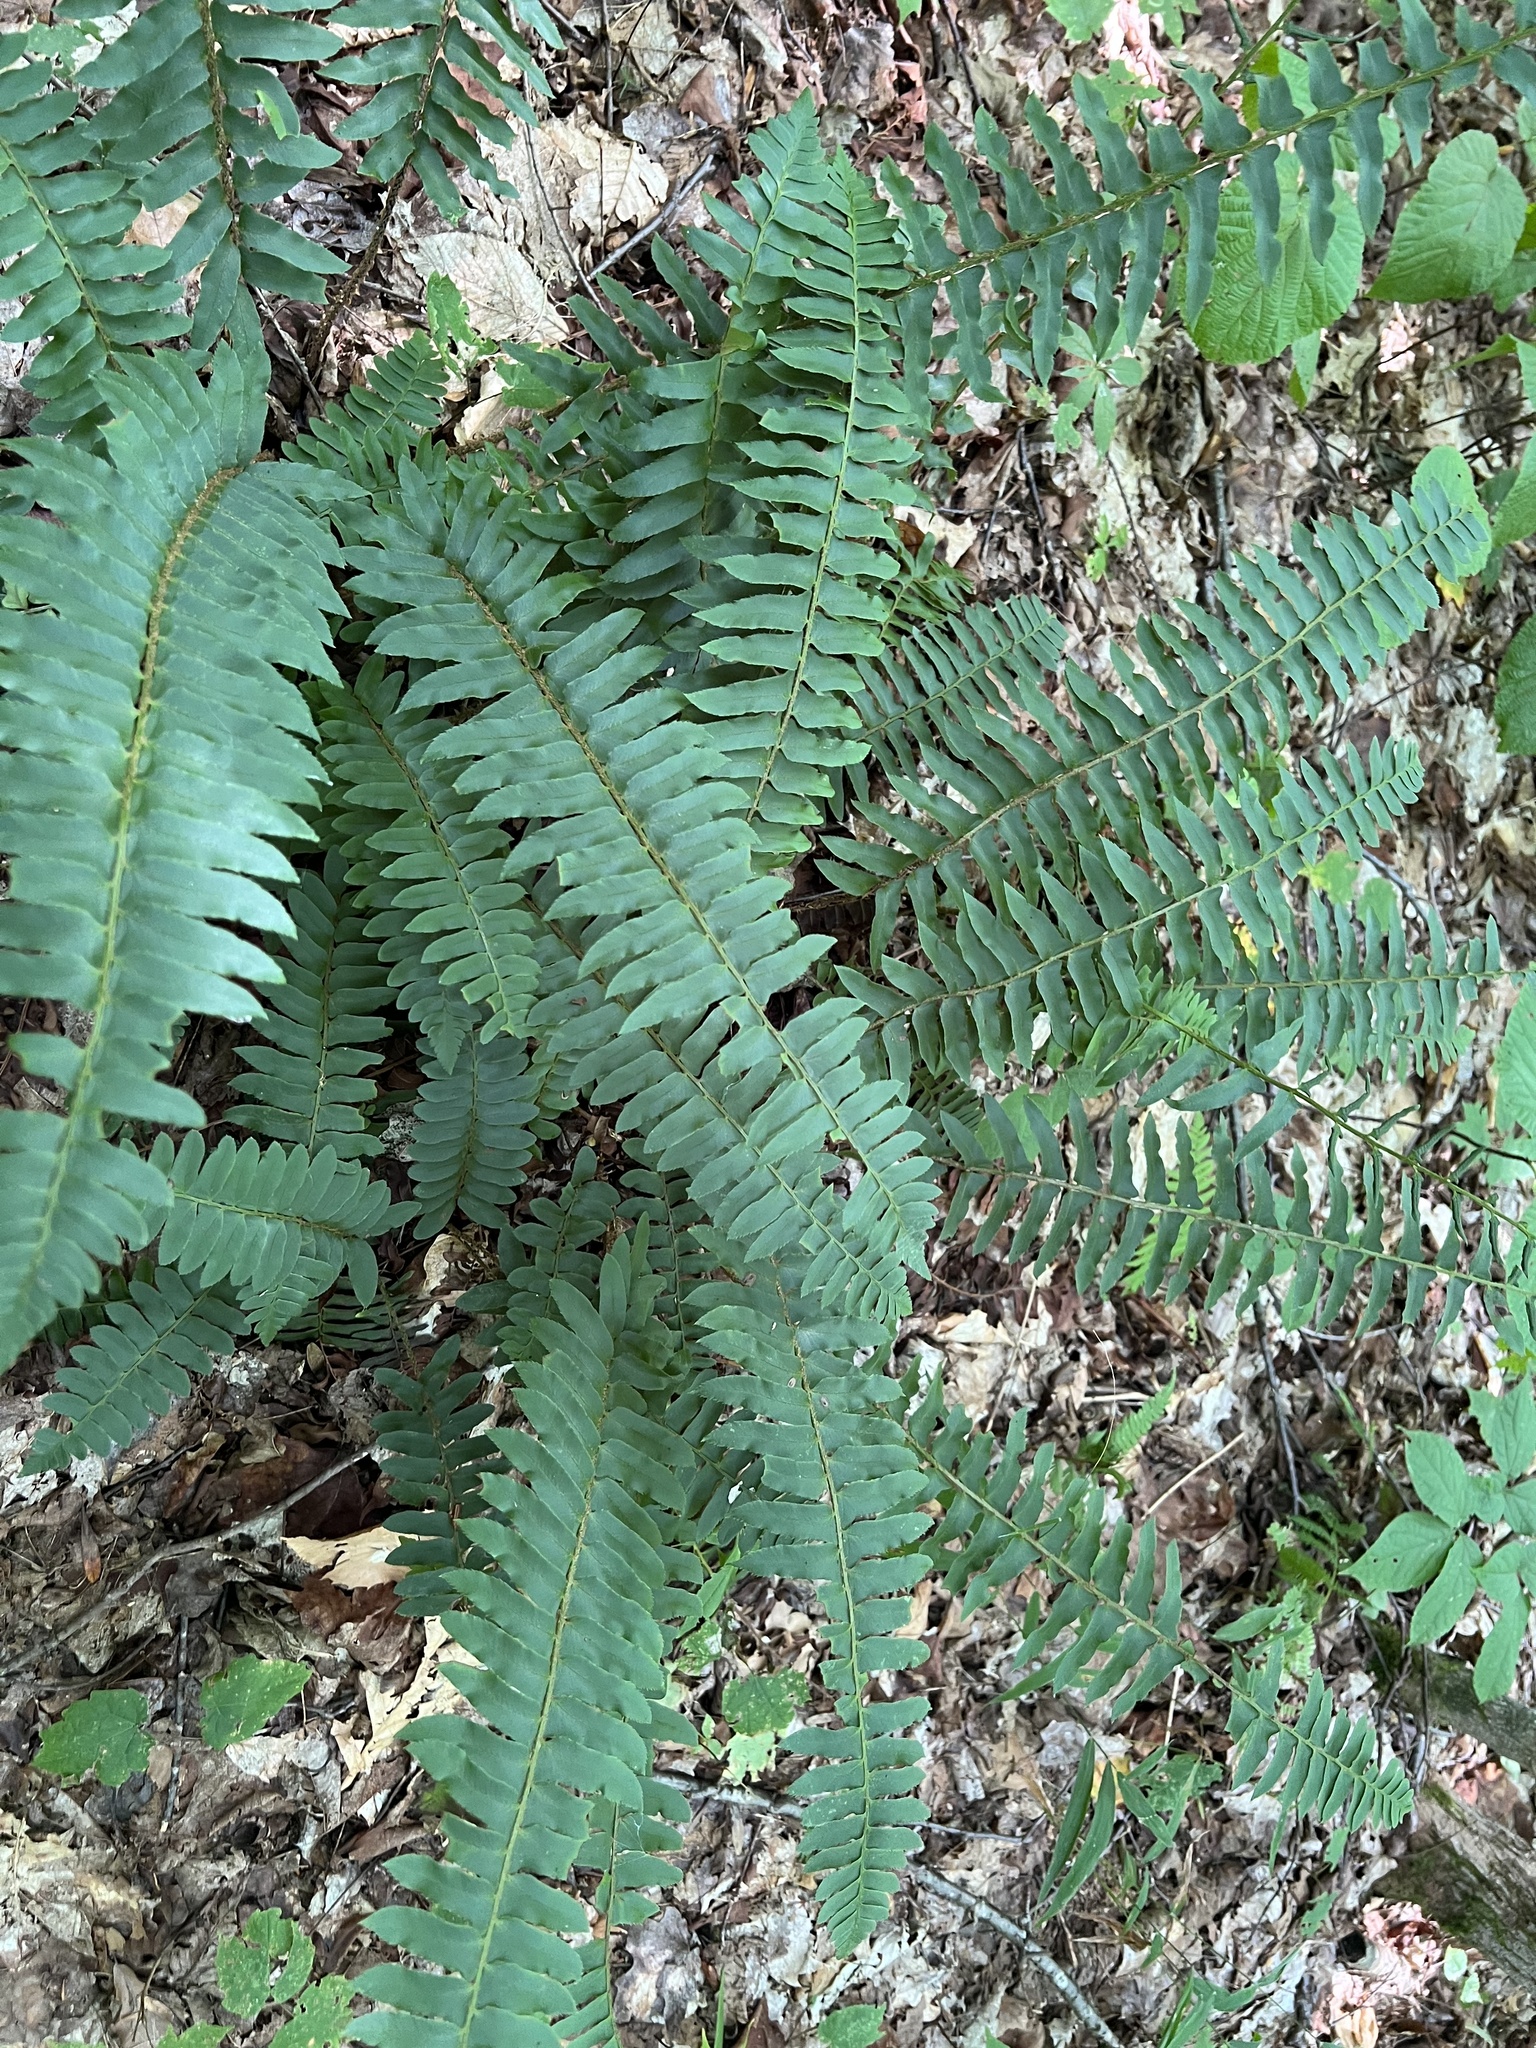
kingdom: Plantae
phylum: Tracheophyta
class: Polypodiopsida
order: Polypodiales
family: Dryopteridaceae
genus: Polystichum
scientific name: Polystichum acrostichoides
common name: Christmas fern
